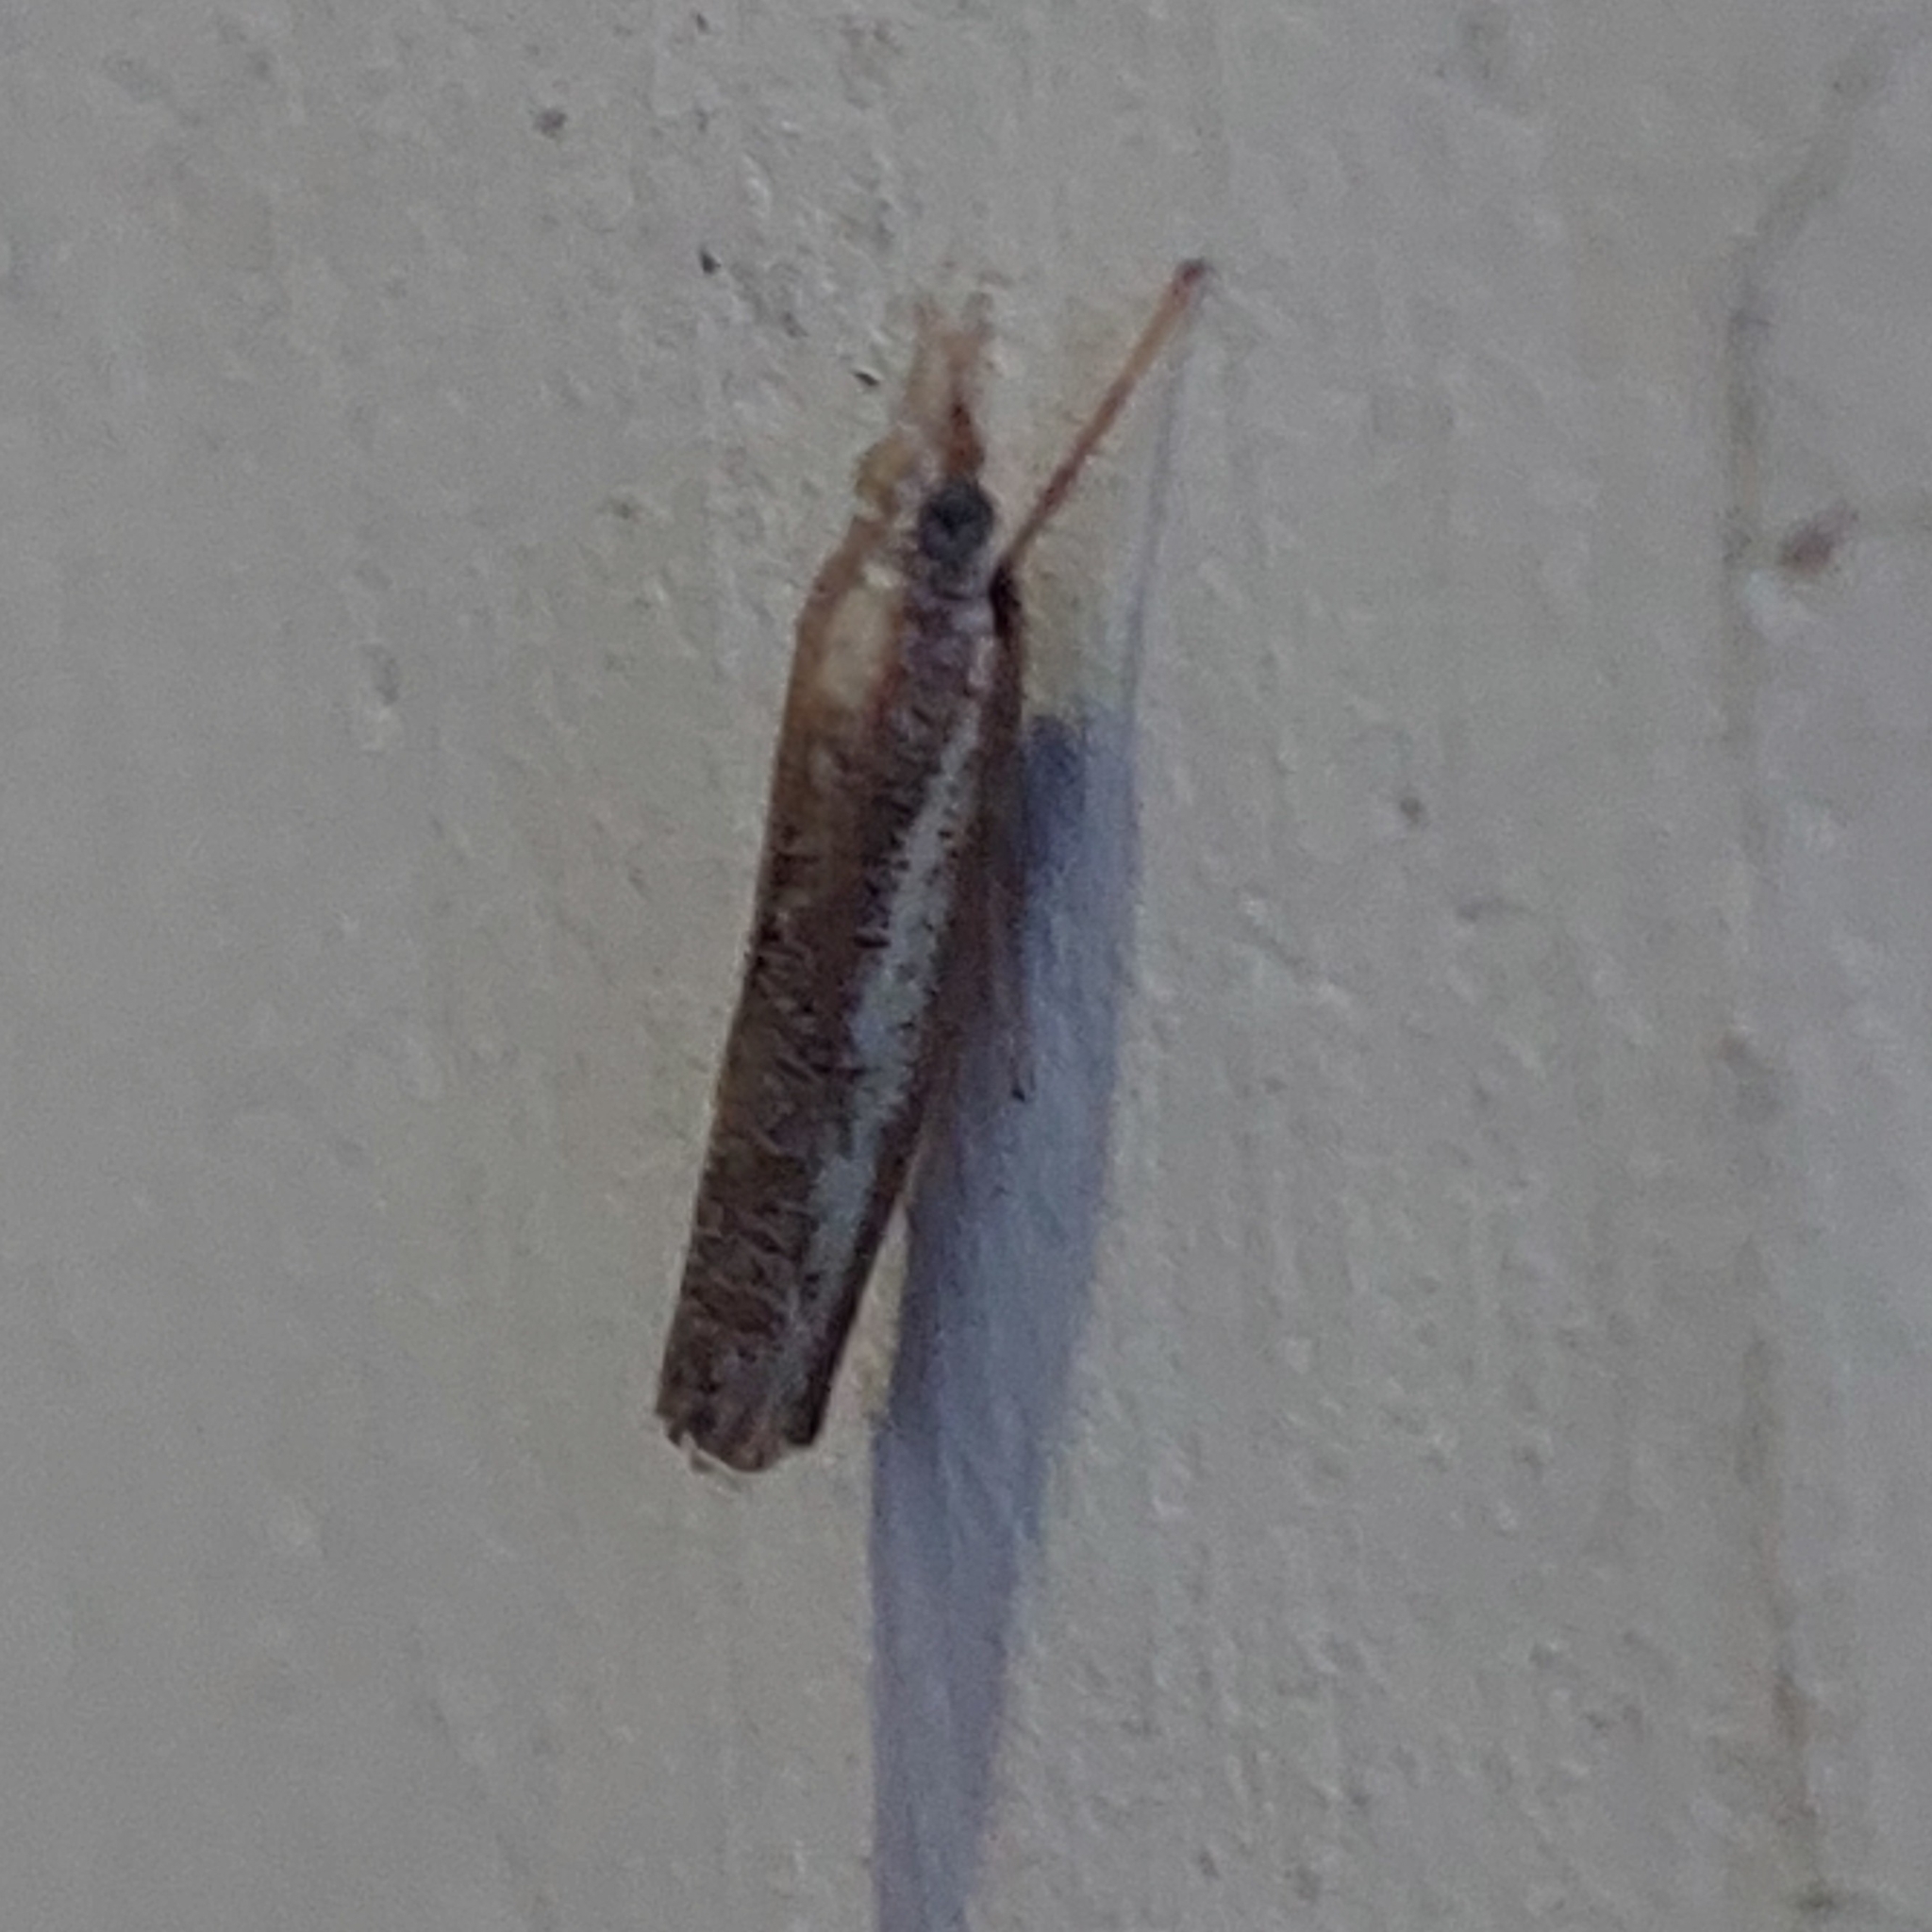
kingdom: Animalia
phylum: Arthropoda
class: Insecta
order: Lepidoptera
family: Crambidae
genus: Agriphila
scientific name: Agriphila tolli
